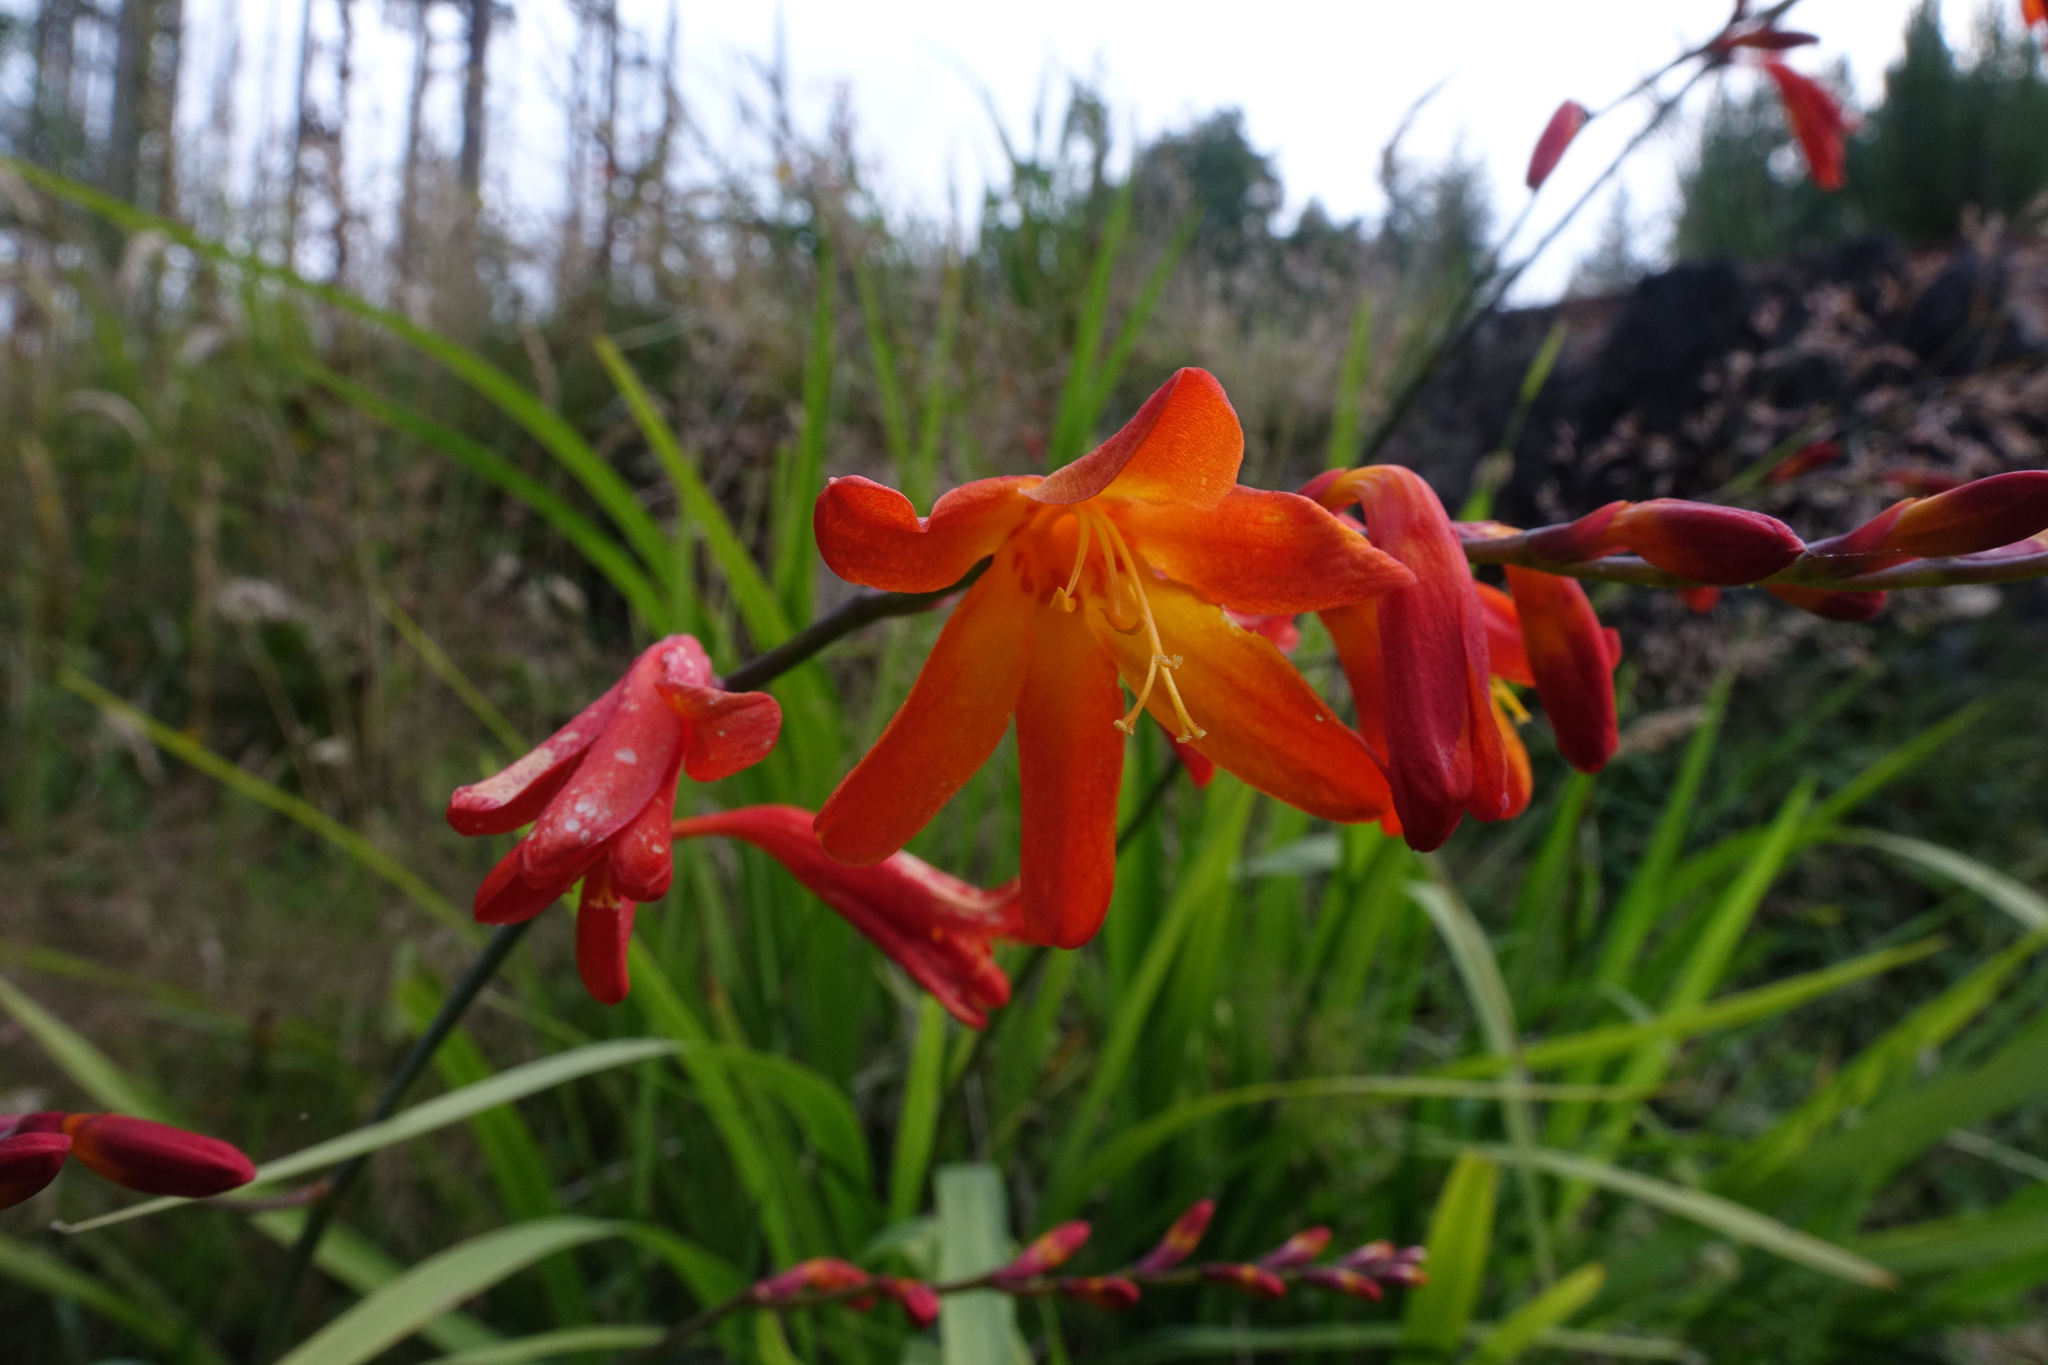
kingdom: Plantae
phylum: Tracheophyta
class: Liliopsida
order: Asparagales
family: Iridaceae
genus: Crocosmia
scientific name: Crocosmia crocosmiiflora
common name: Montbretia
